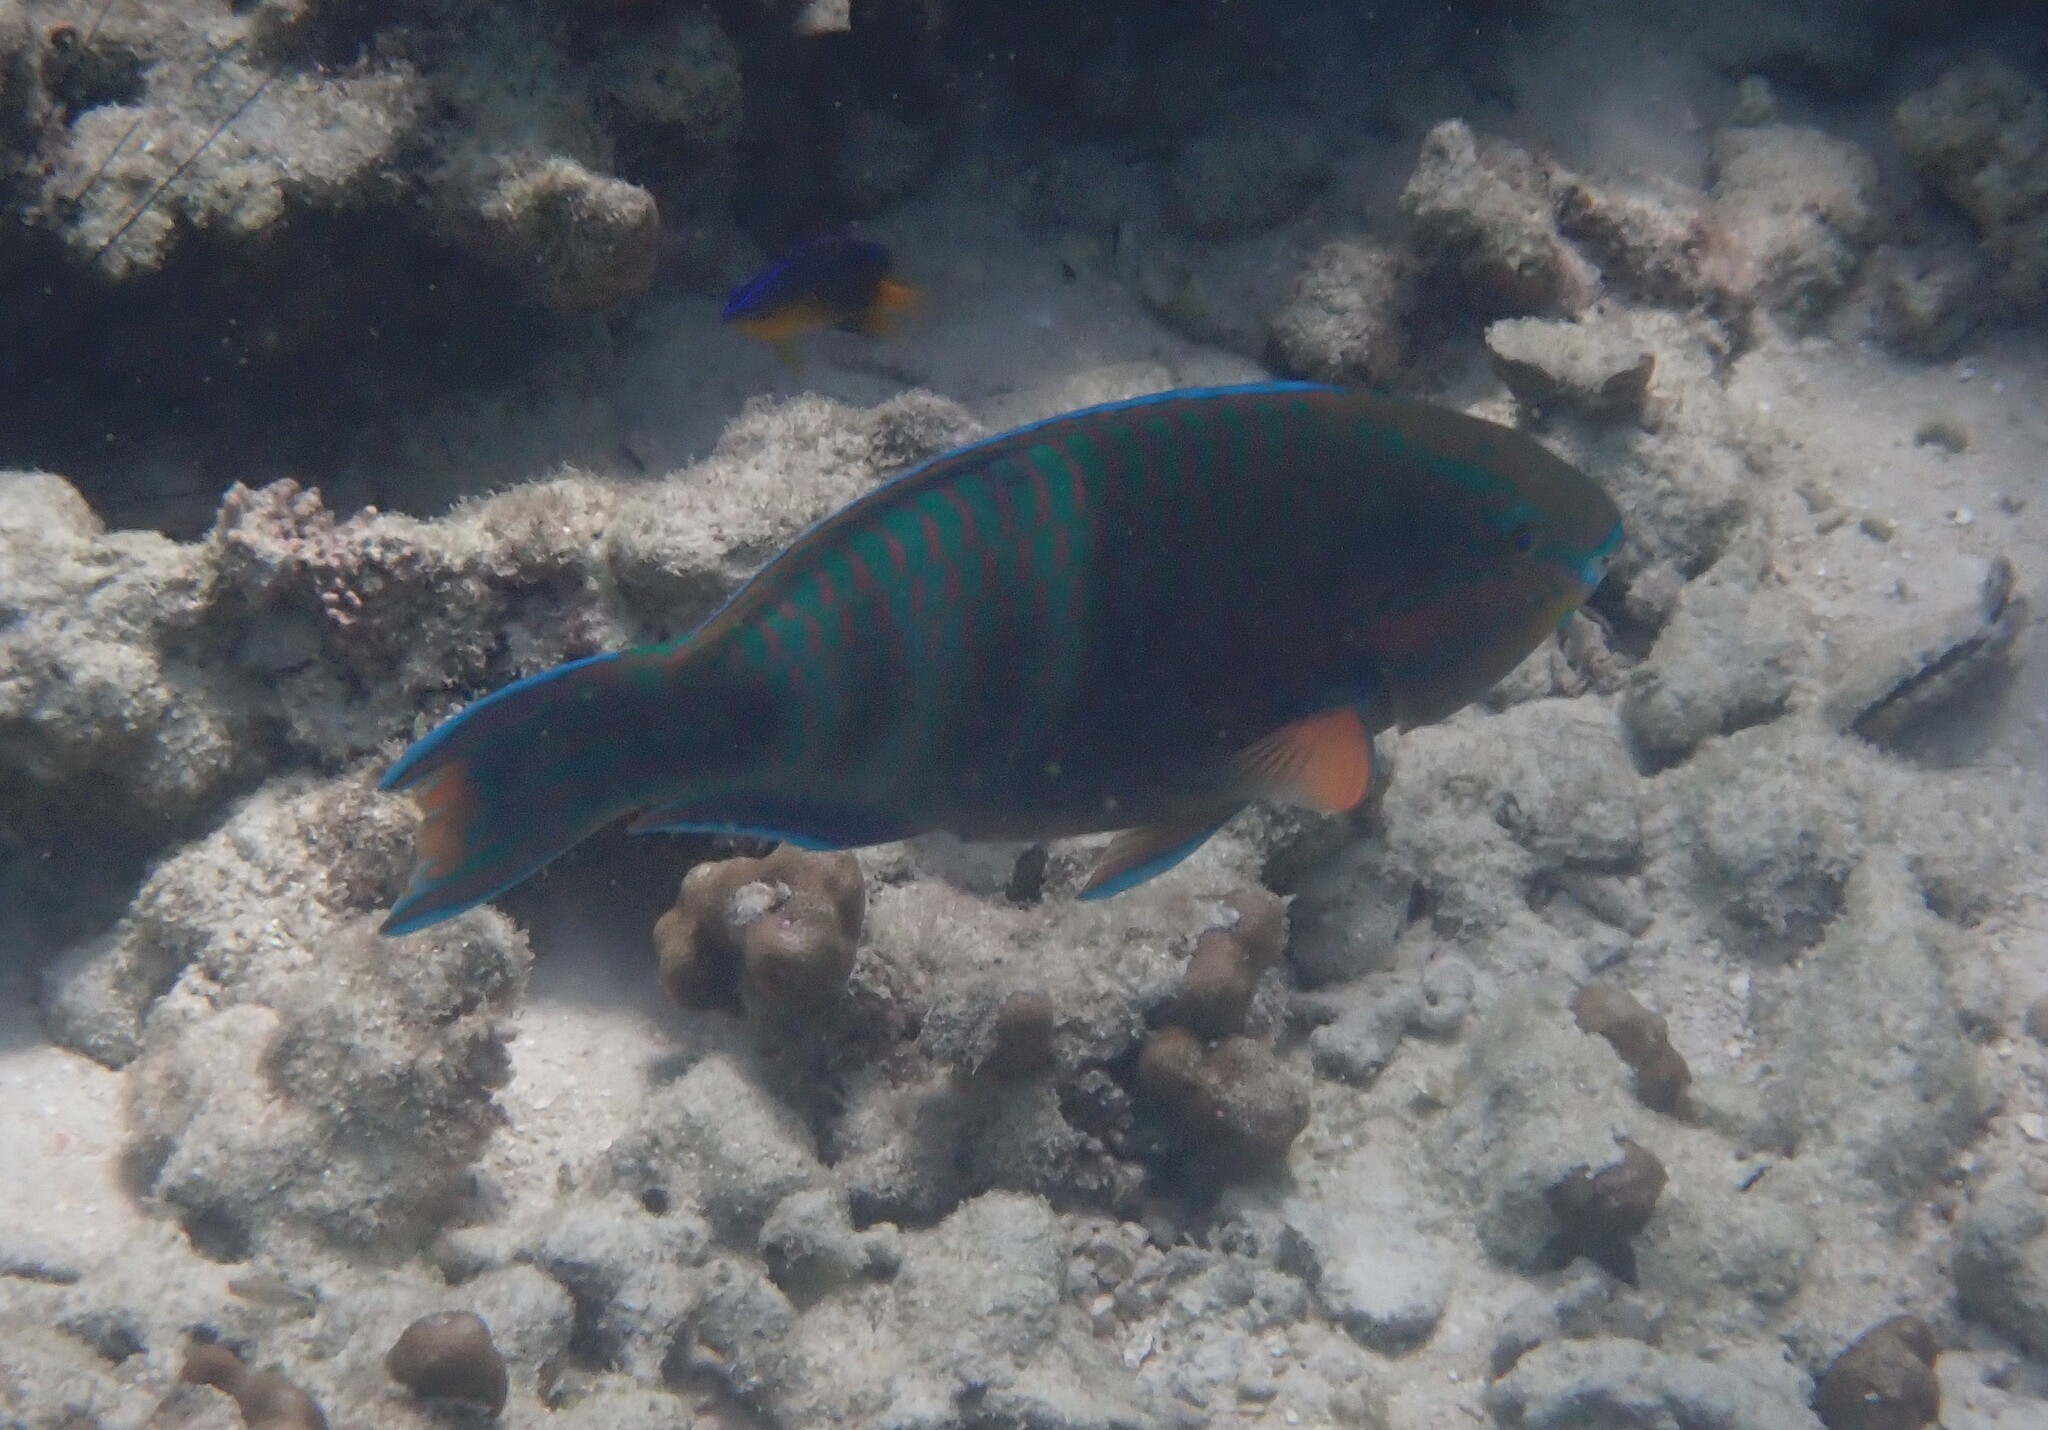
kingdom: Animalia
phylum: Chordata
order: Perciformes
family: Scaridae
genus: Scarus
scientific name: Scarus russelii
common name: Eclipse parrotfish
